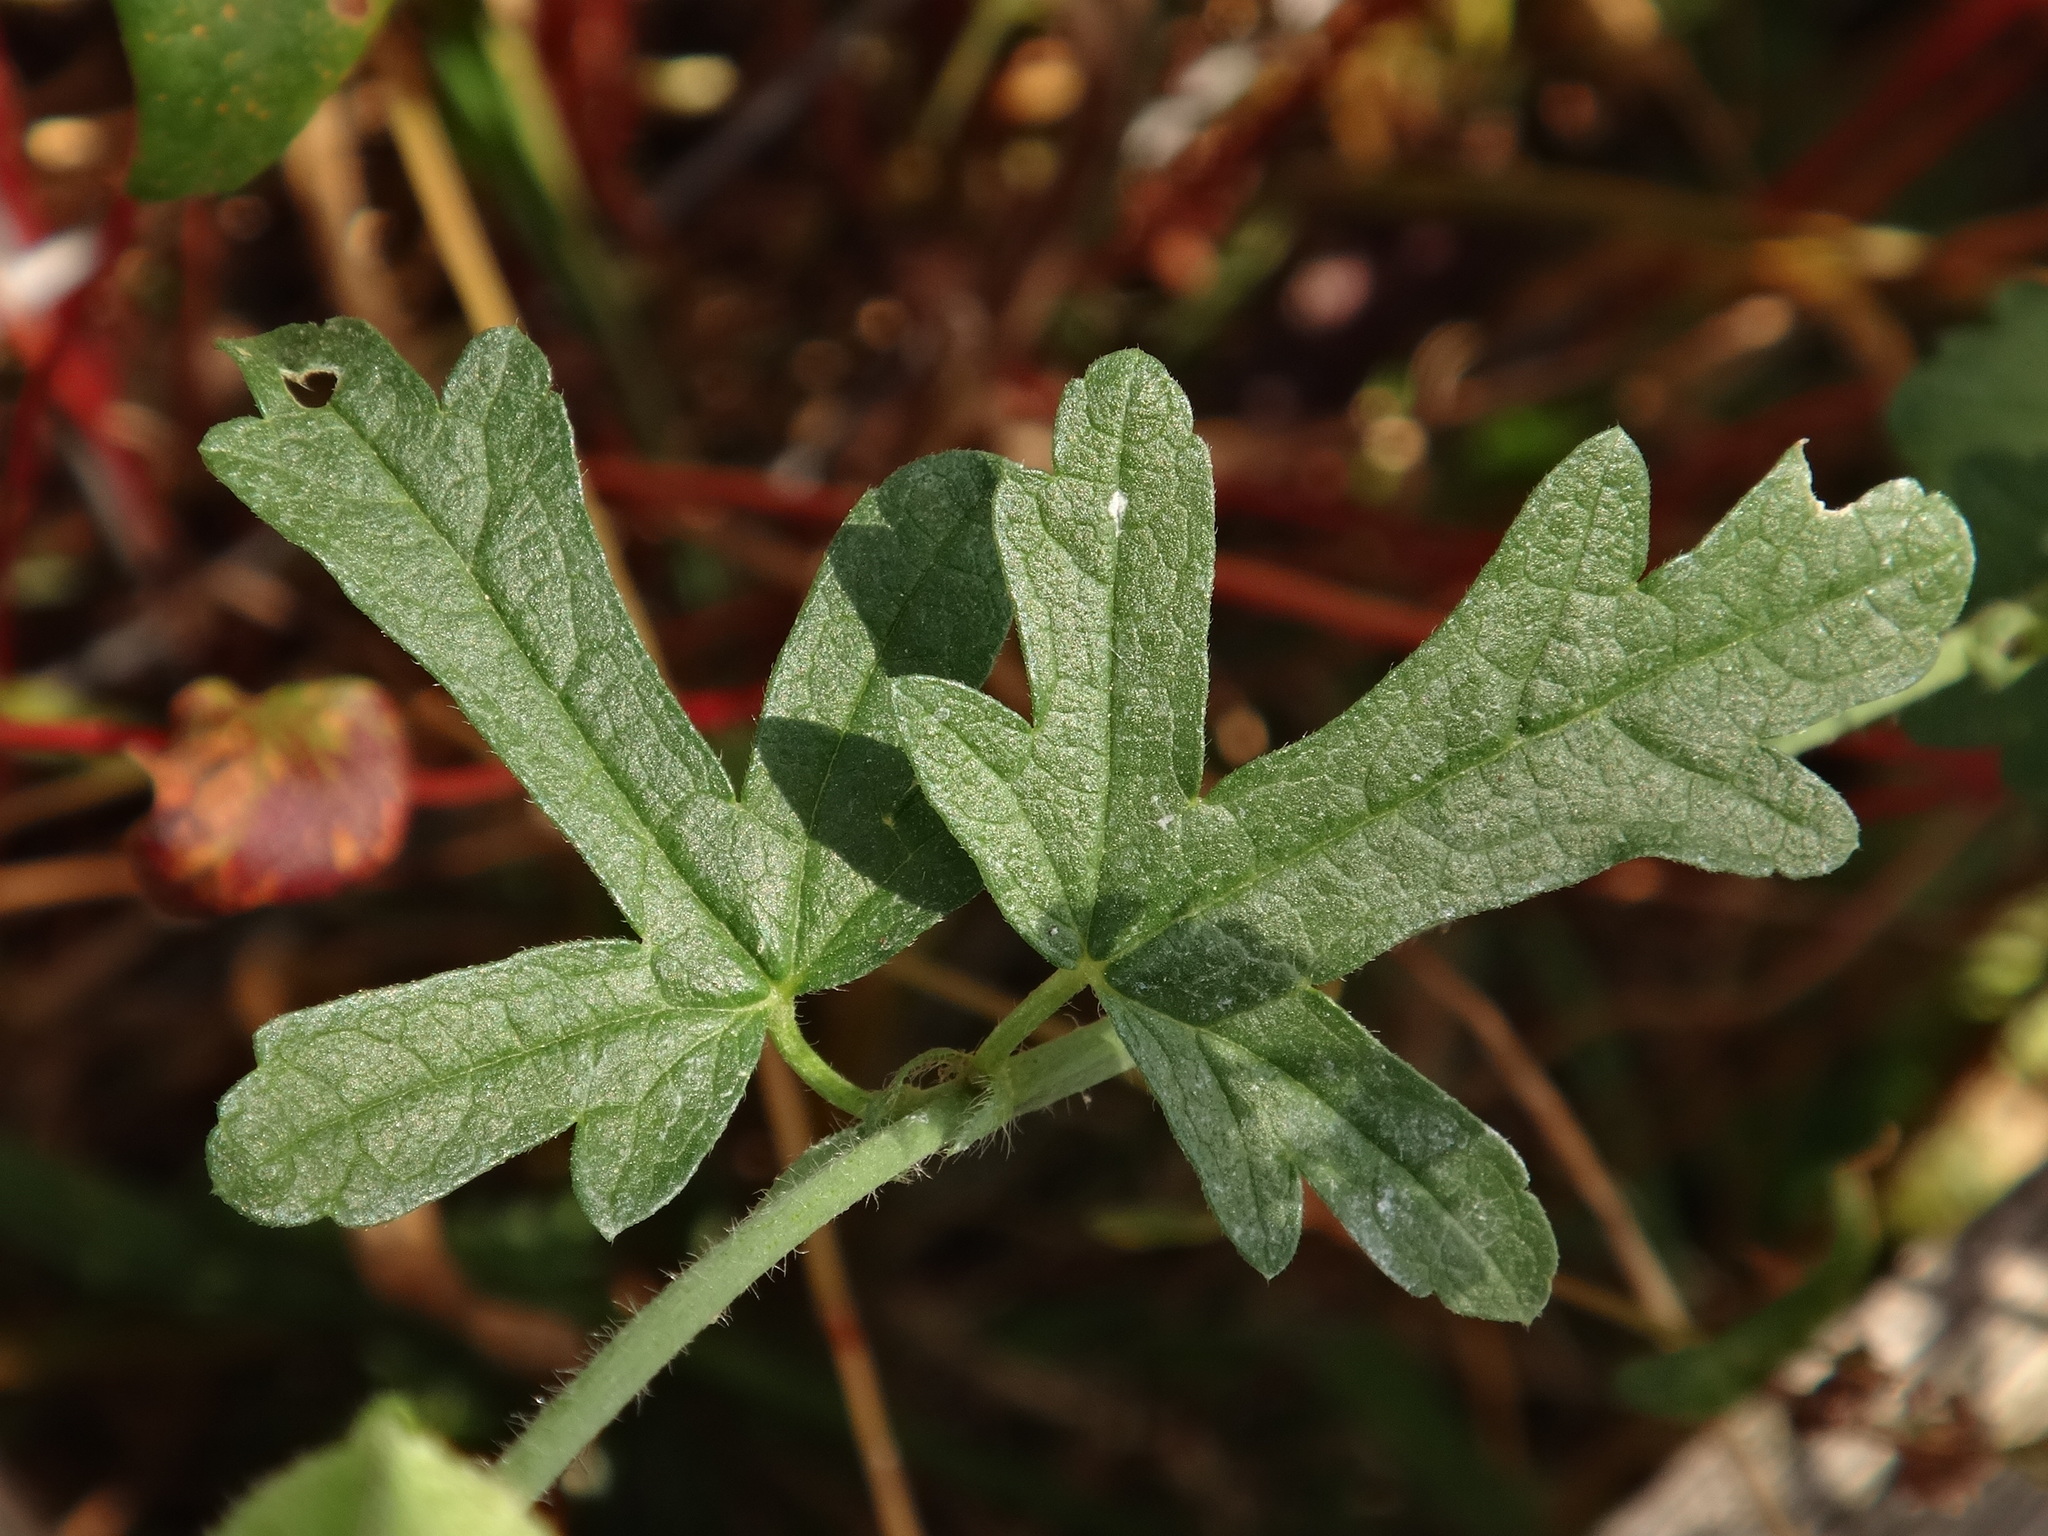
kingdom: Plantae
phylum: Tracheophyta
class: Magnoliopsida
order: Malvales
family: Malvaceae
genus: Malva
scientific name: Malva moschata
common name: Musk mallow
